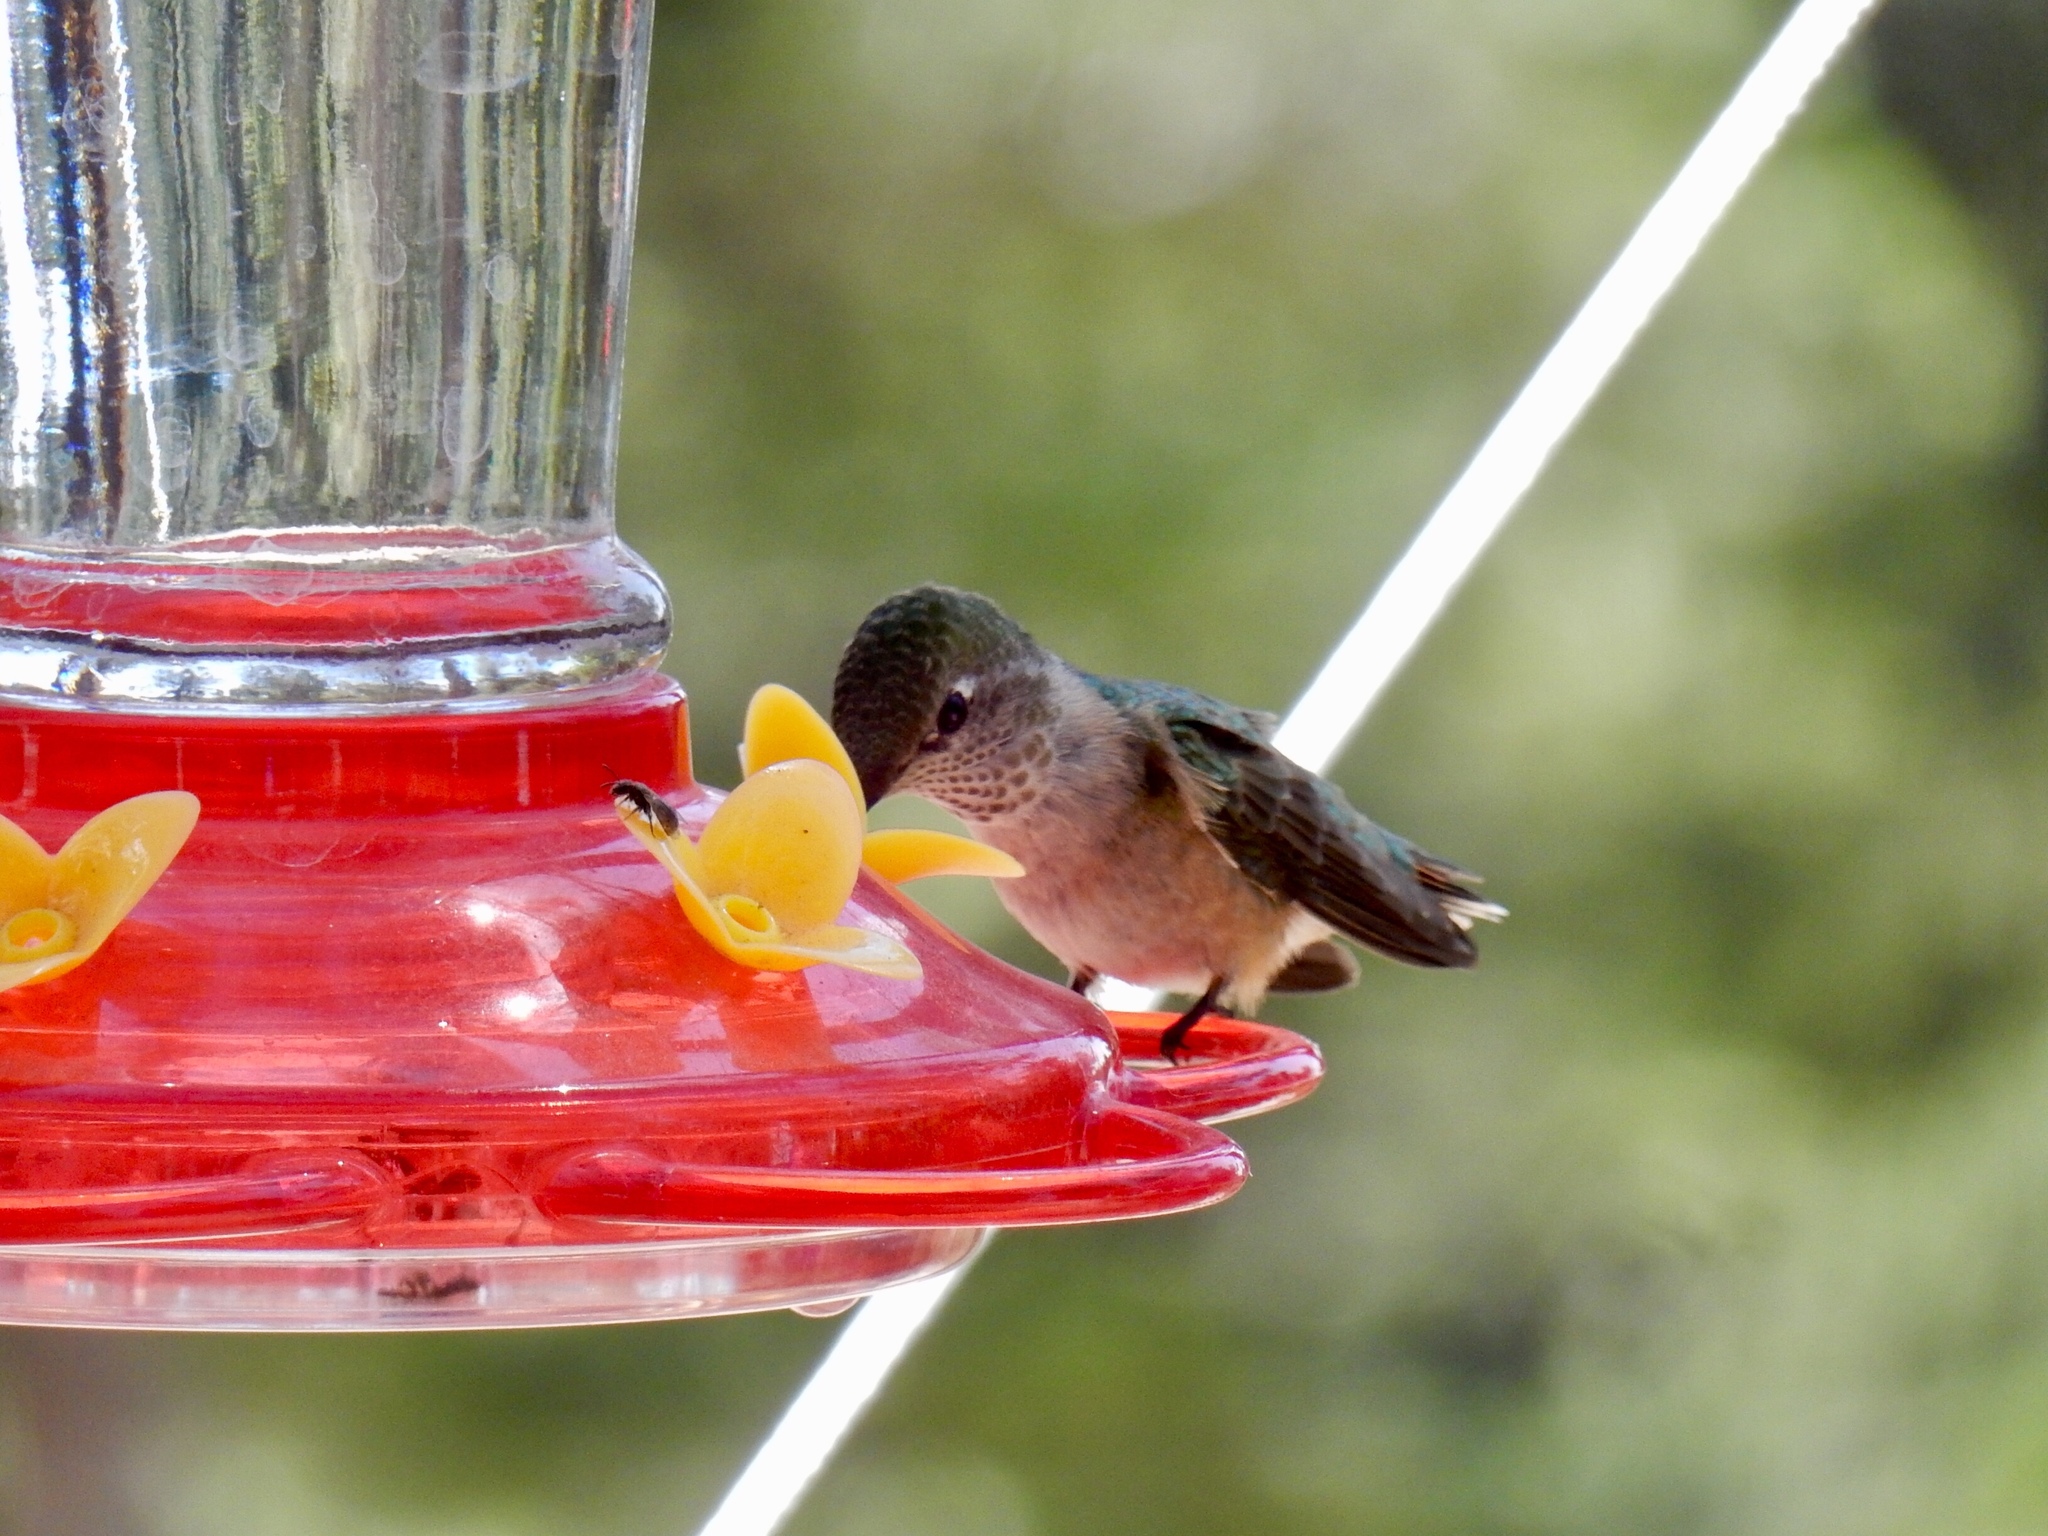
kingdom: Animalia
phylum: Chordata
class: Aves
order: Apodiformes
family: Trochilidae
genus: Selasphorus
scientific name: Selasphorus platycercus
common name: Broad-tailed hummingbird
